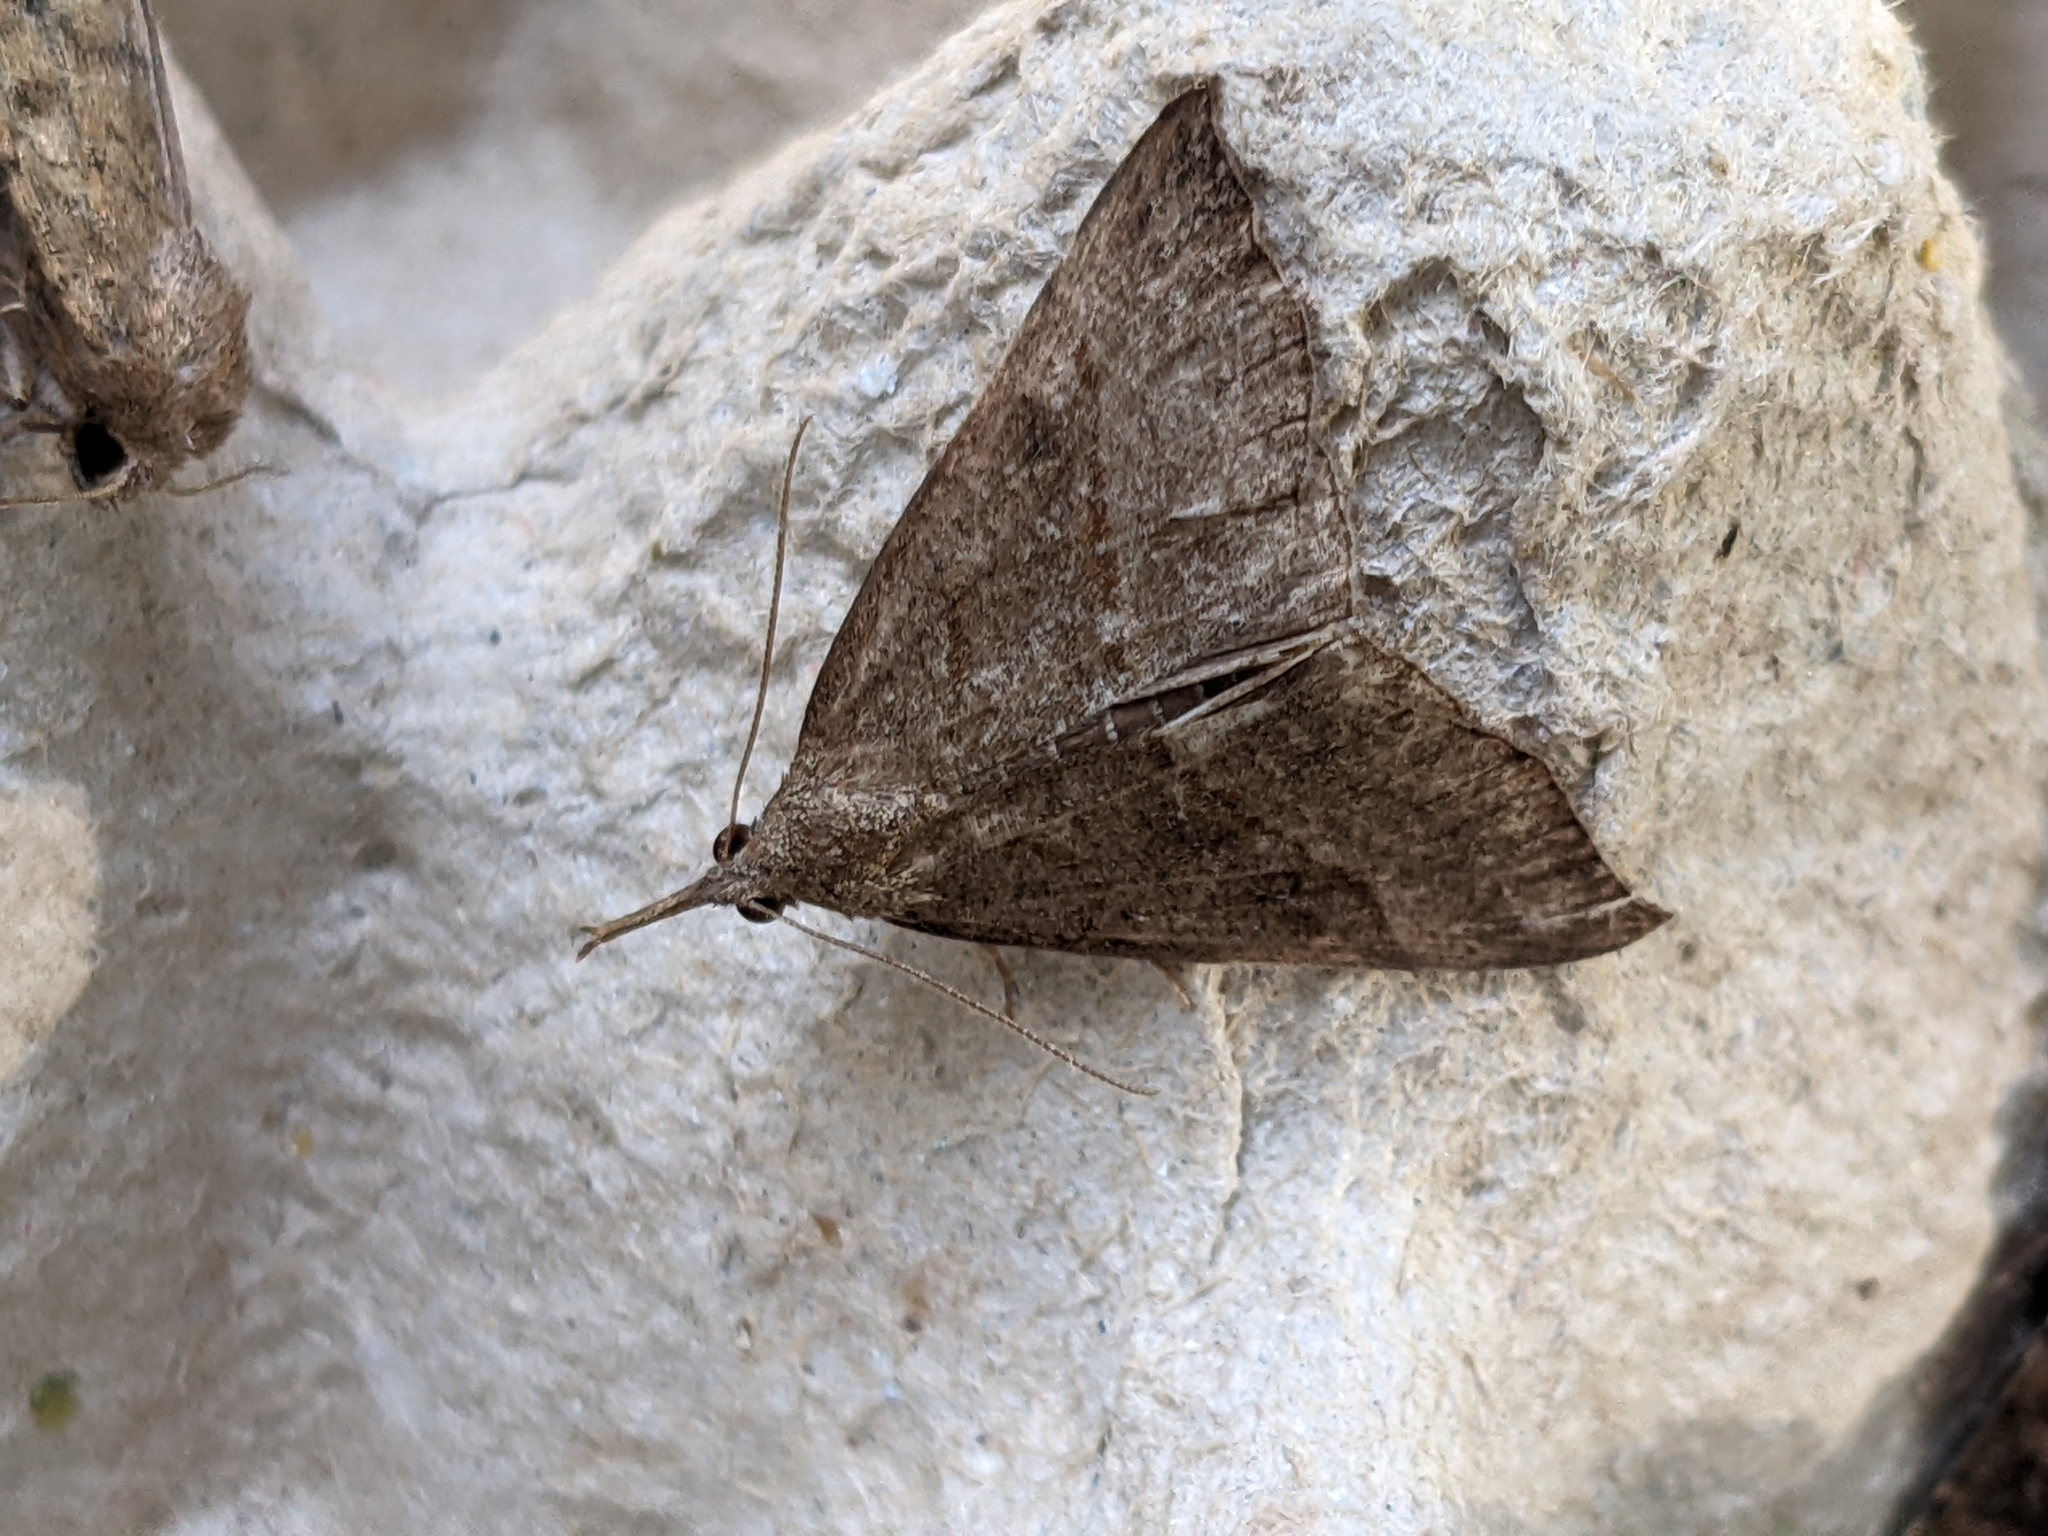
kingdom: Animalia
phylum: Arthropoda
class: Insecta
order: Lepidoptera
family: Erebidae
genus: Hypena
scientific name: Hypena proboscidalis
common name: Snout
